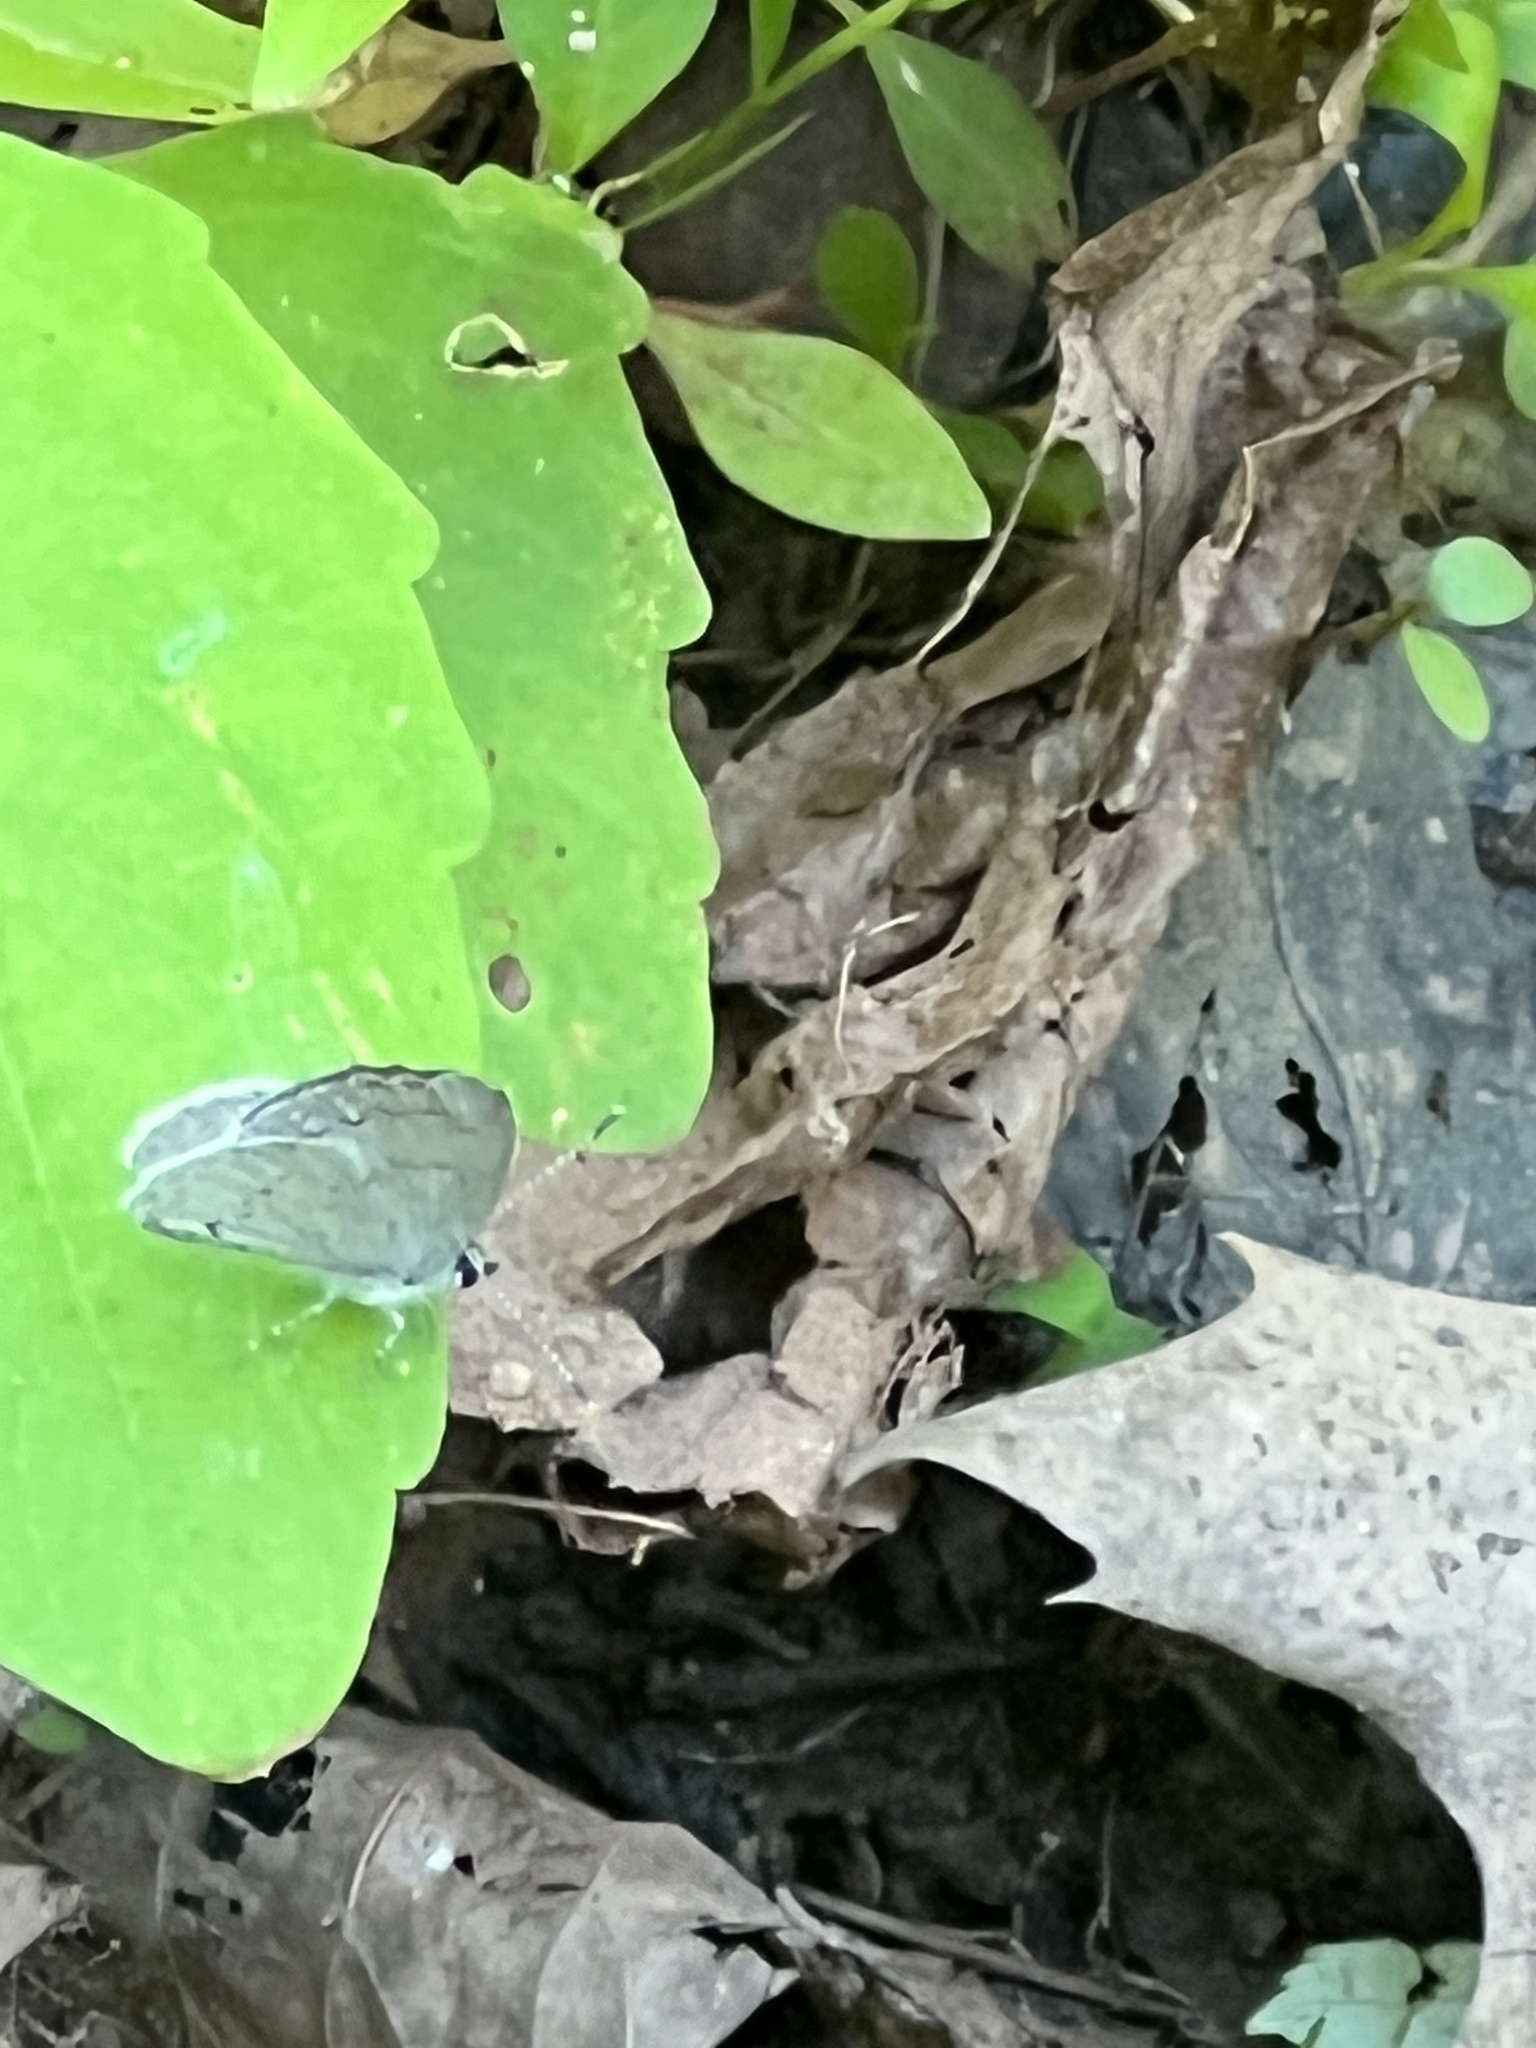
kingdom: Animalia
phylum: Arthropoda
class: Insecta
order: Lepidoptera
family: Lycaenidae
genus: Cyaniris
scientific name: Cyaniris neglecta
